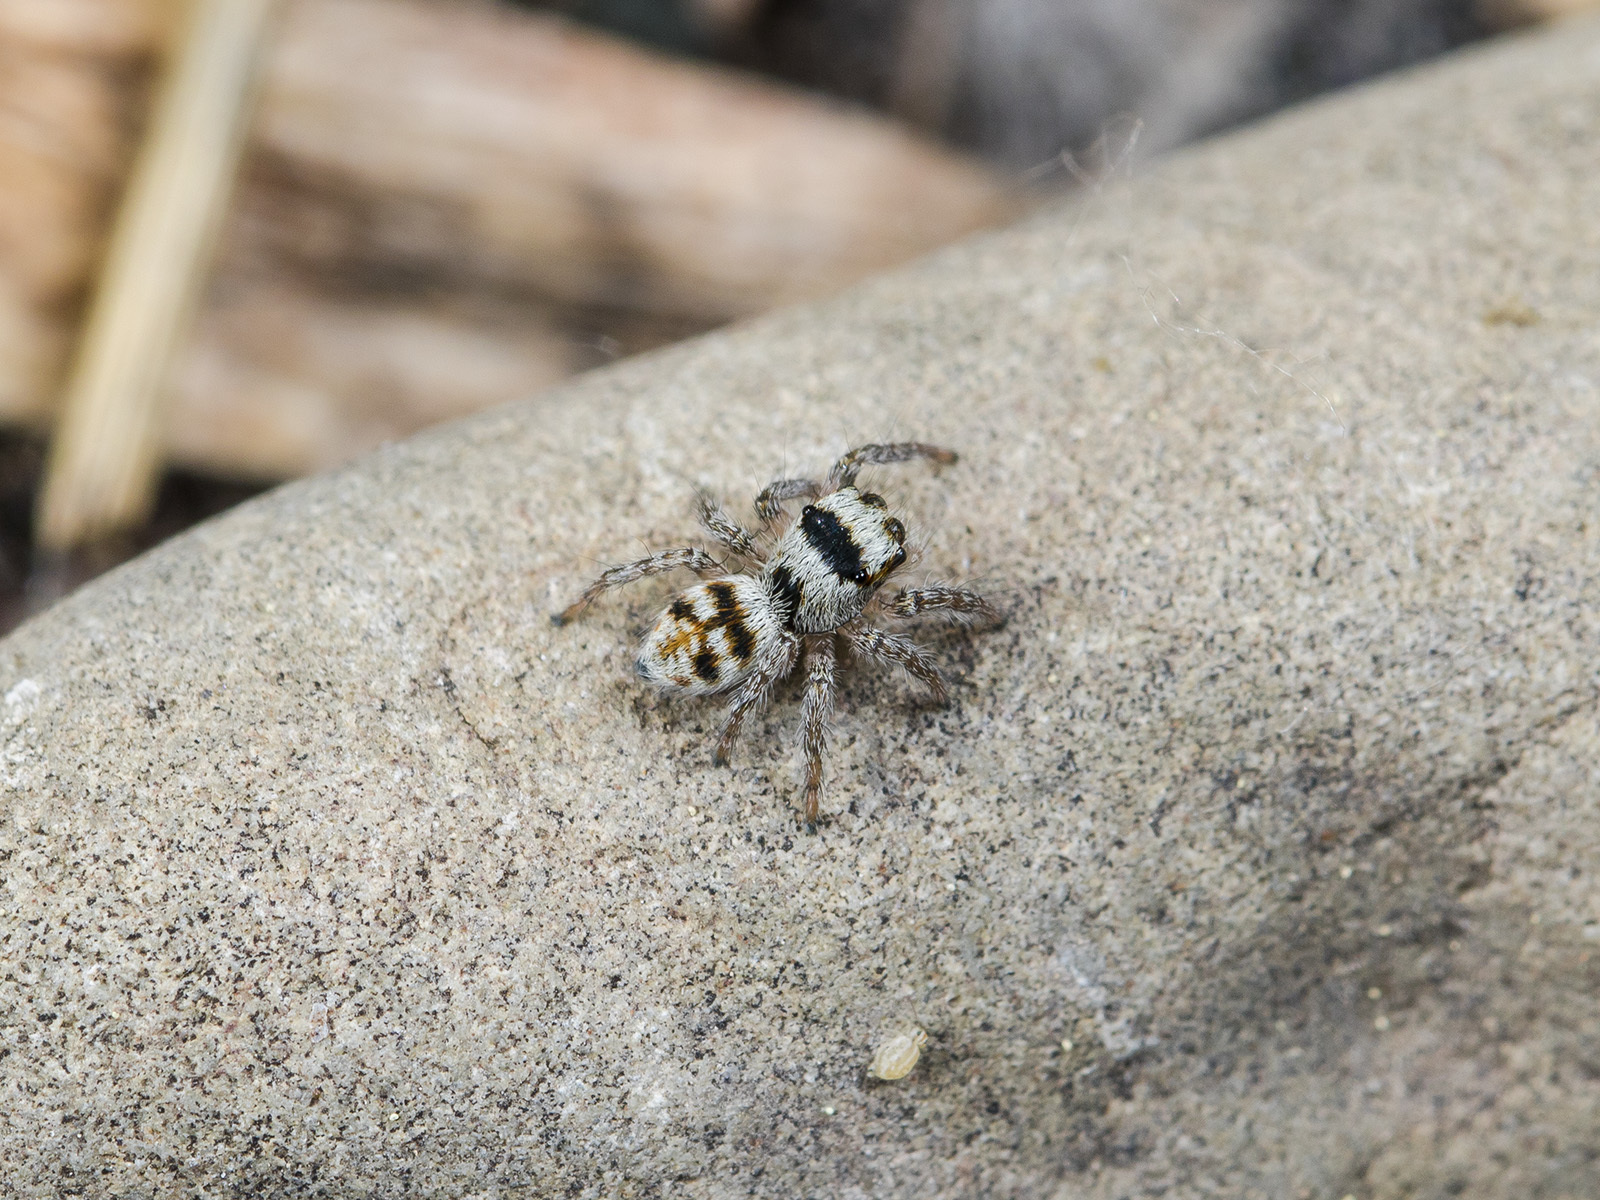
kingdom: Animalia
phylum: Arthropoda
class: Arachnida
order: Araneae
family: Salticidae
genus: Philaeus
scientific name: Philaeus chrysops
